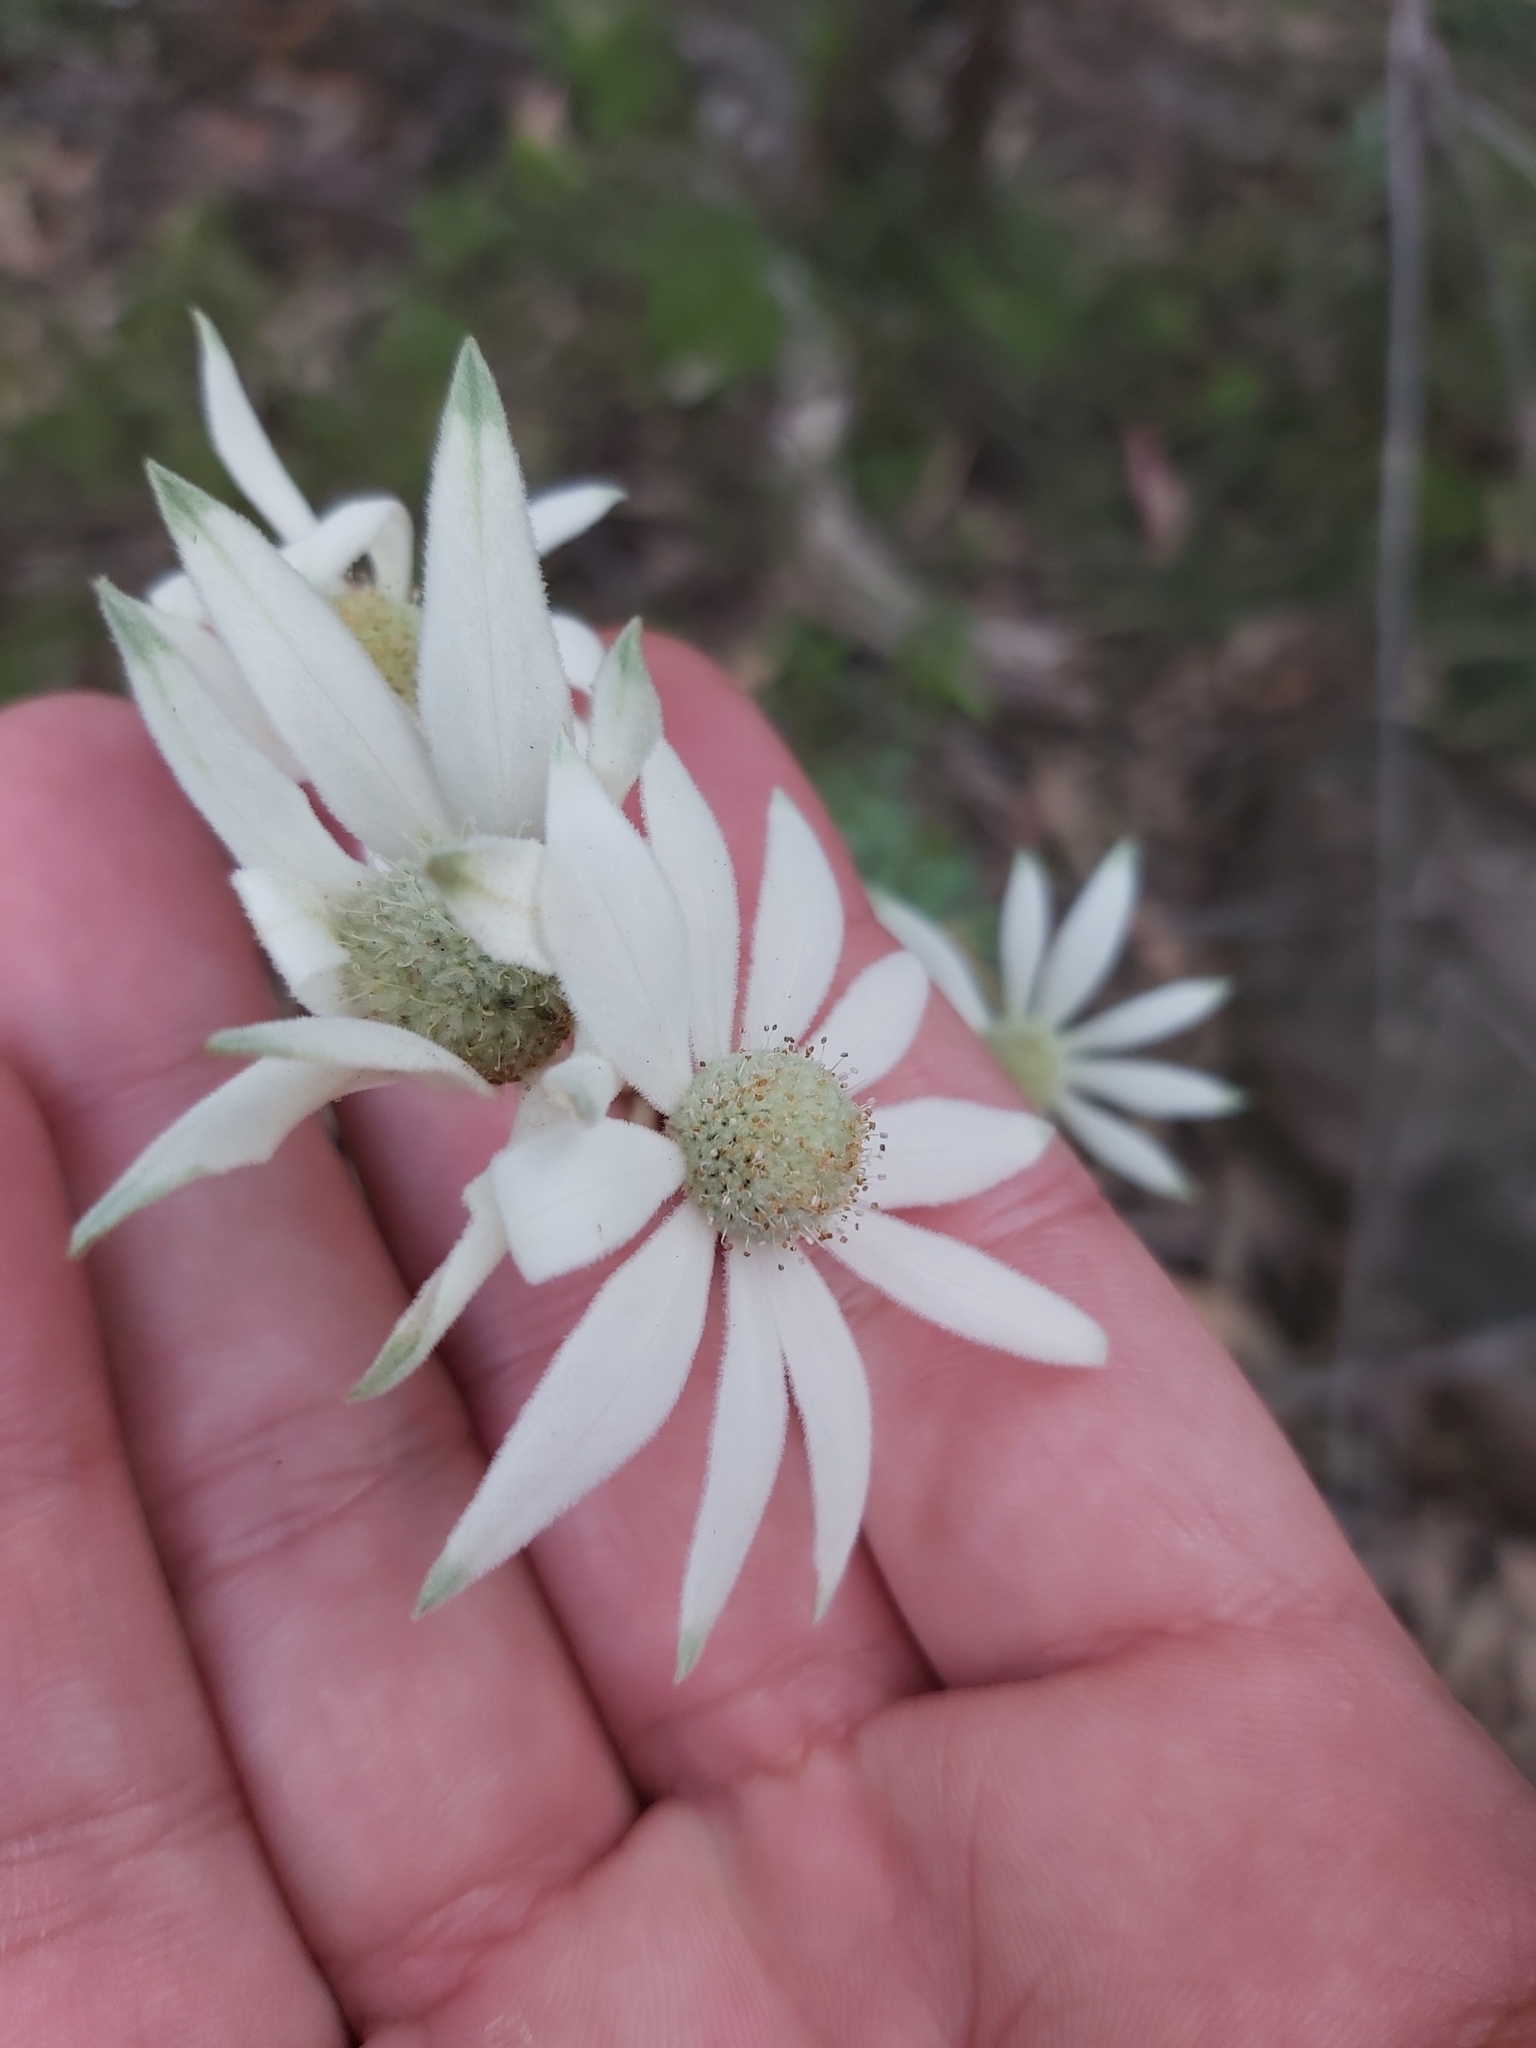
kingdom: Plantae
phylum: Tracheophyta
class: Magnoliopsida
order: Apiales
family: Apiaceae
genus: Actinotus
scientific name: Actinotus helianthi
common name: Flannel-flower
